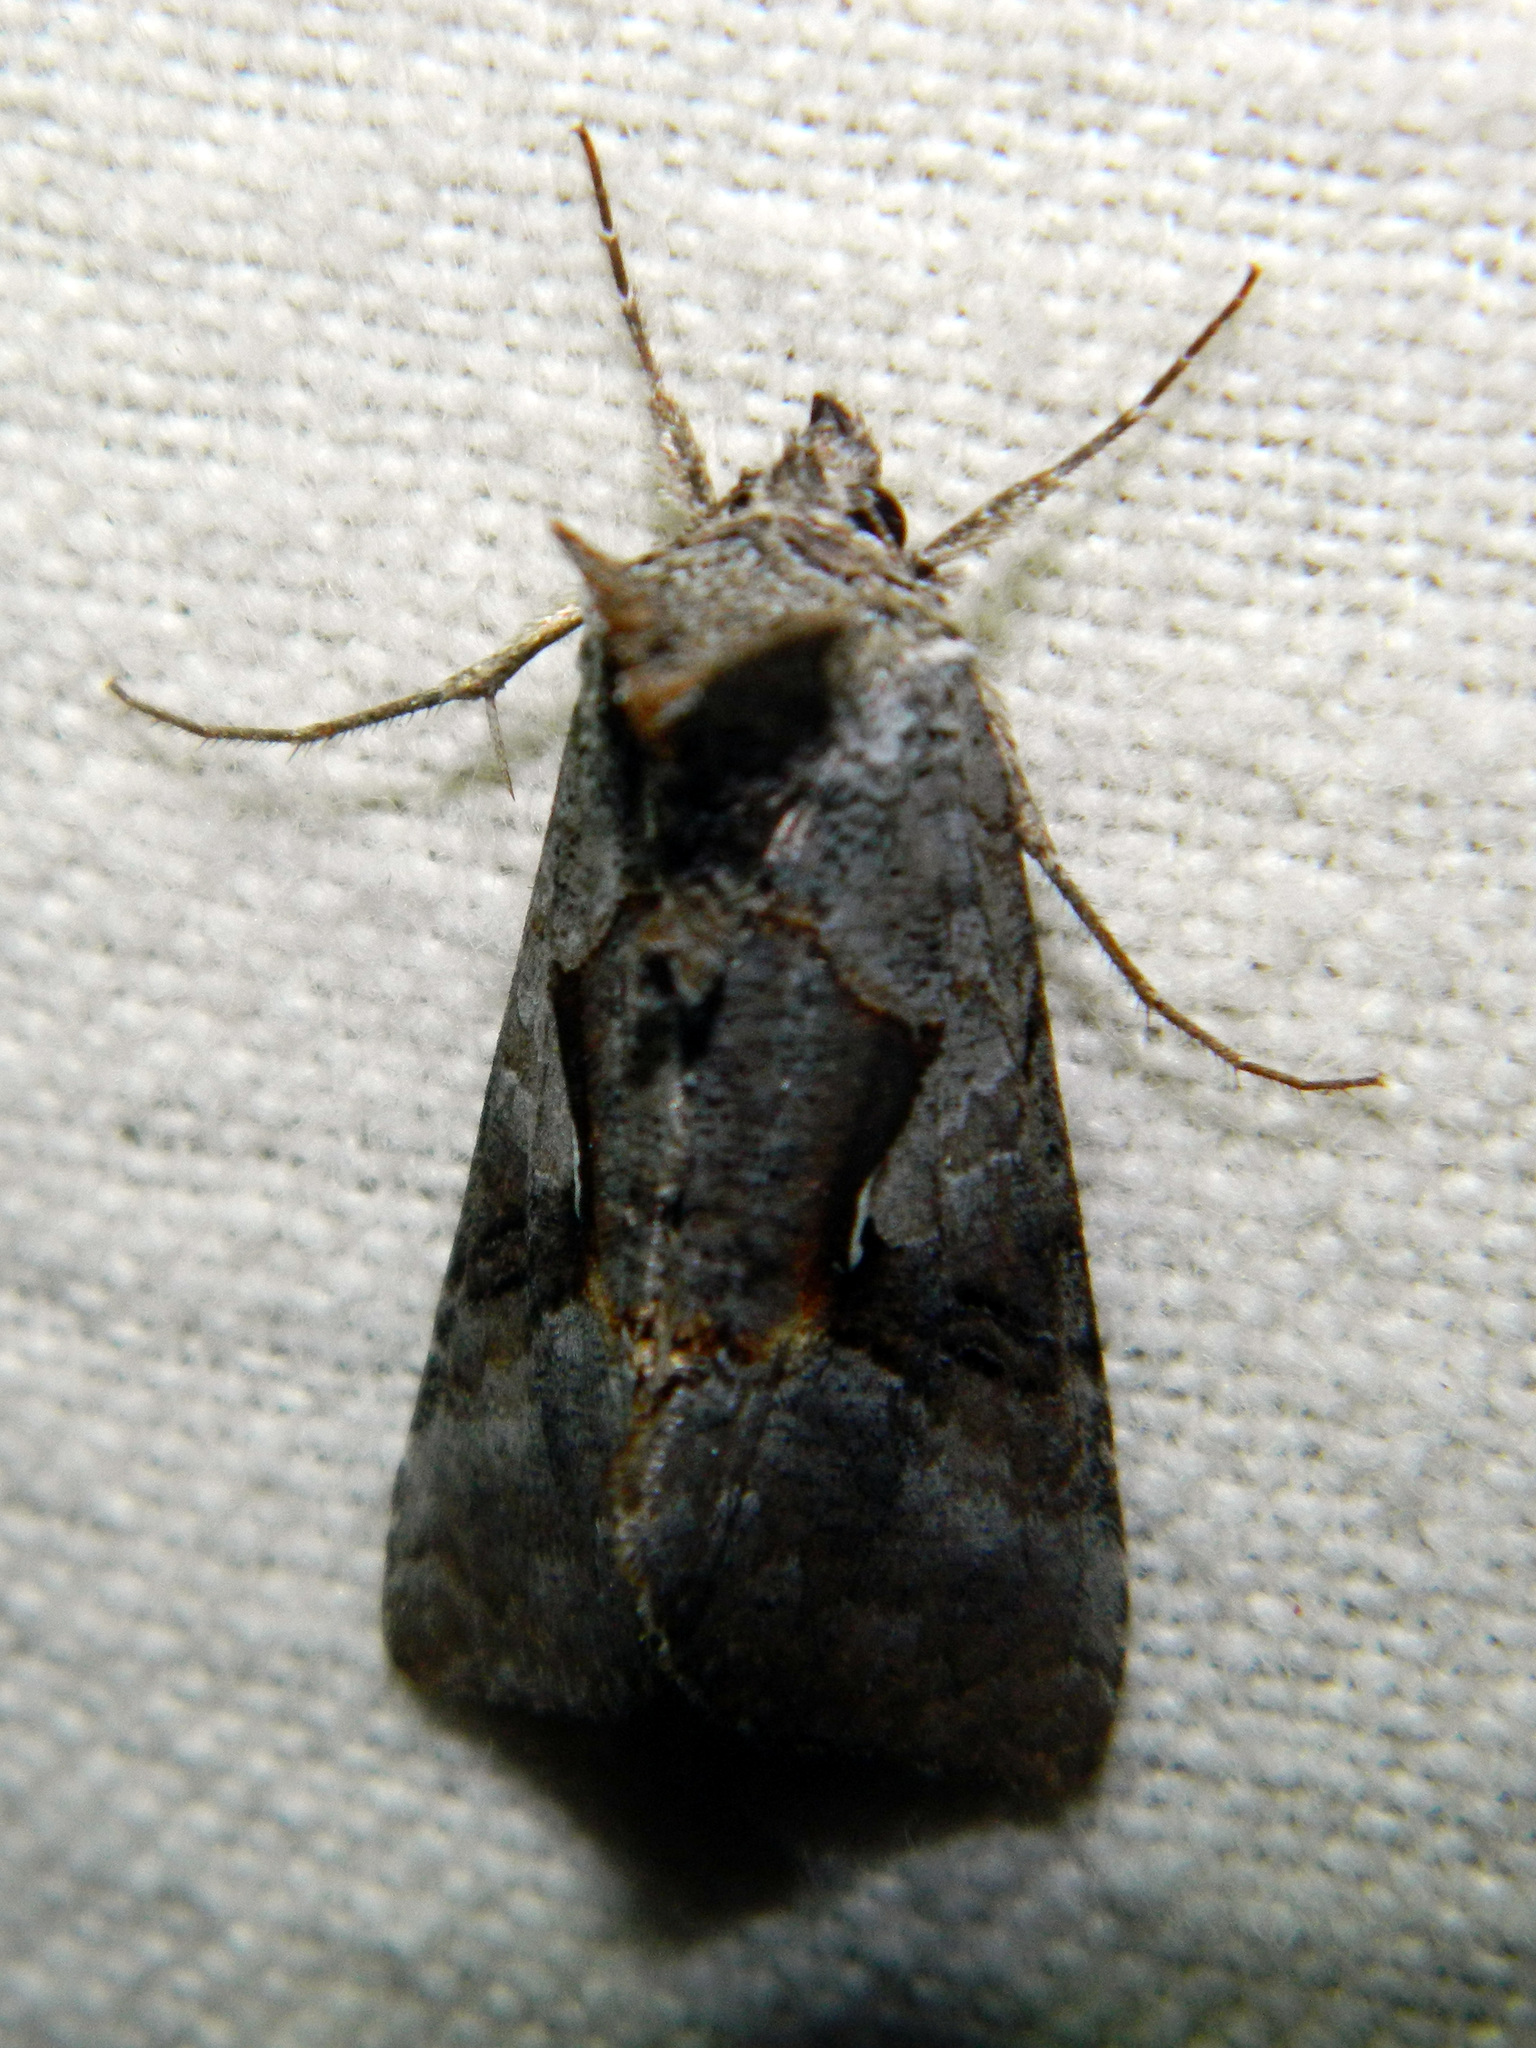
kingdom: Animalia
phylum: Arthropoda
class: Insecta
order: Lepidoptera
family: Noctuidae
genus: Syngrapha
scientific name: Syngrapha epigaea
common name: Epigaea looper moth
